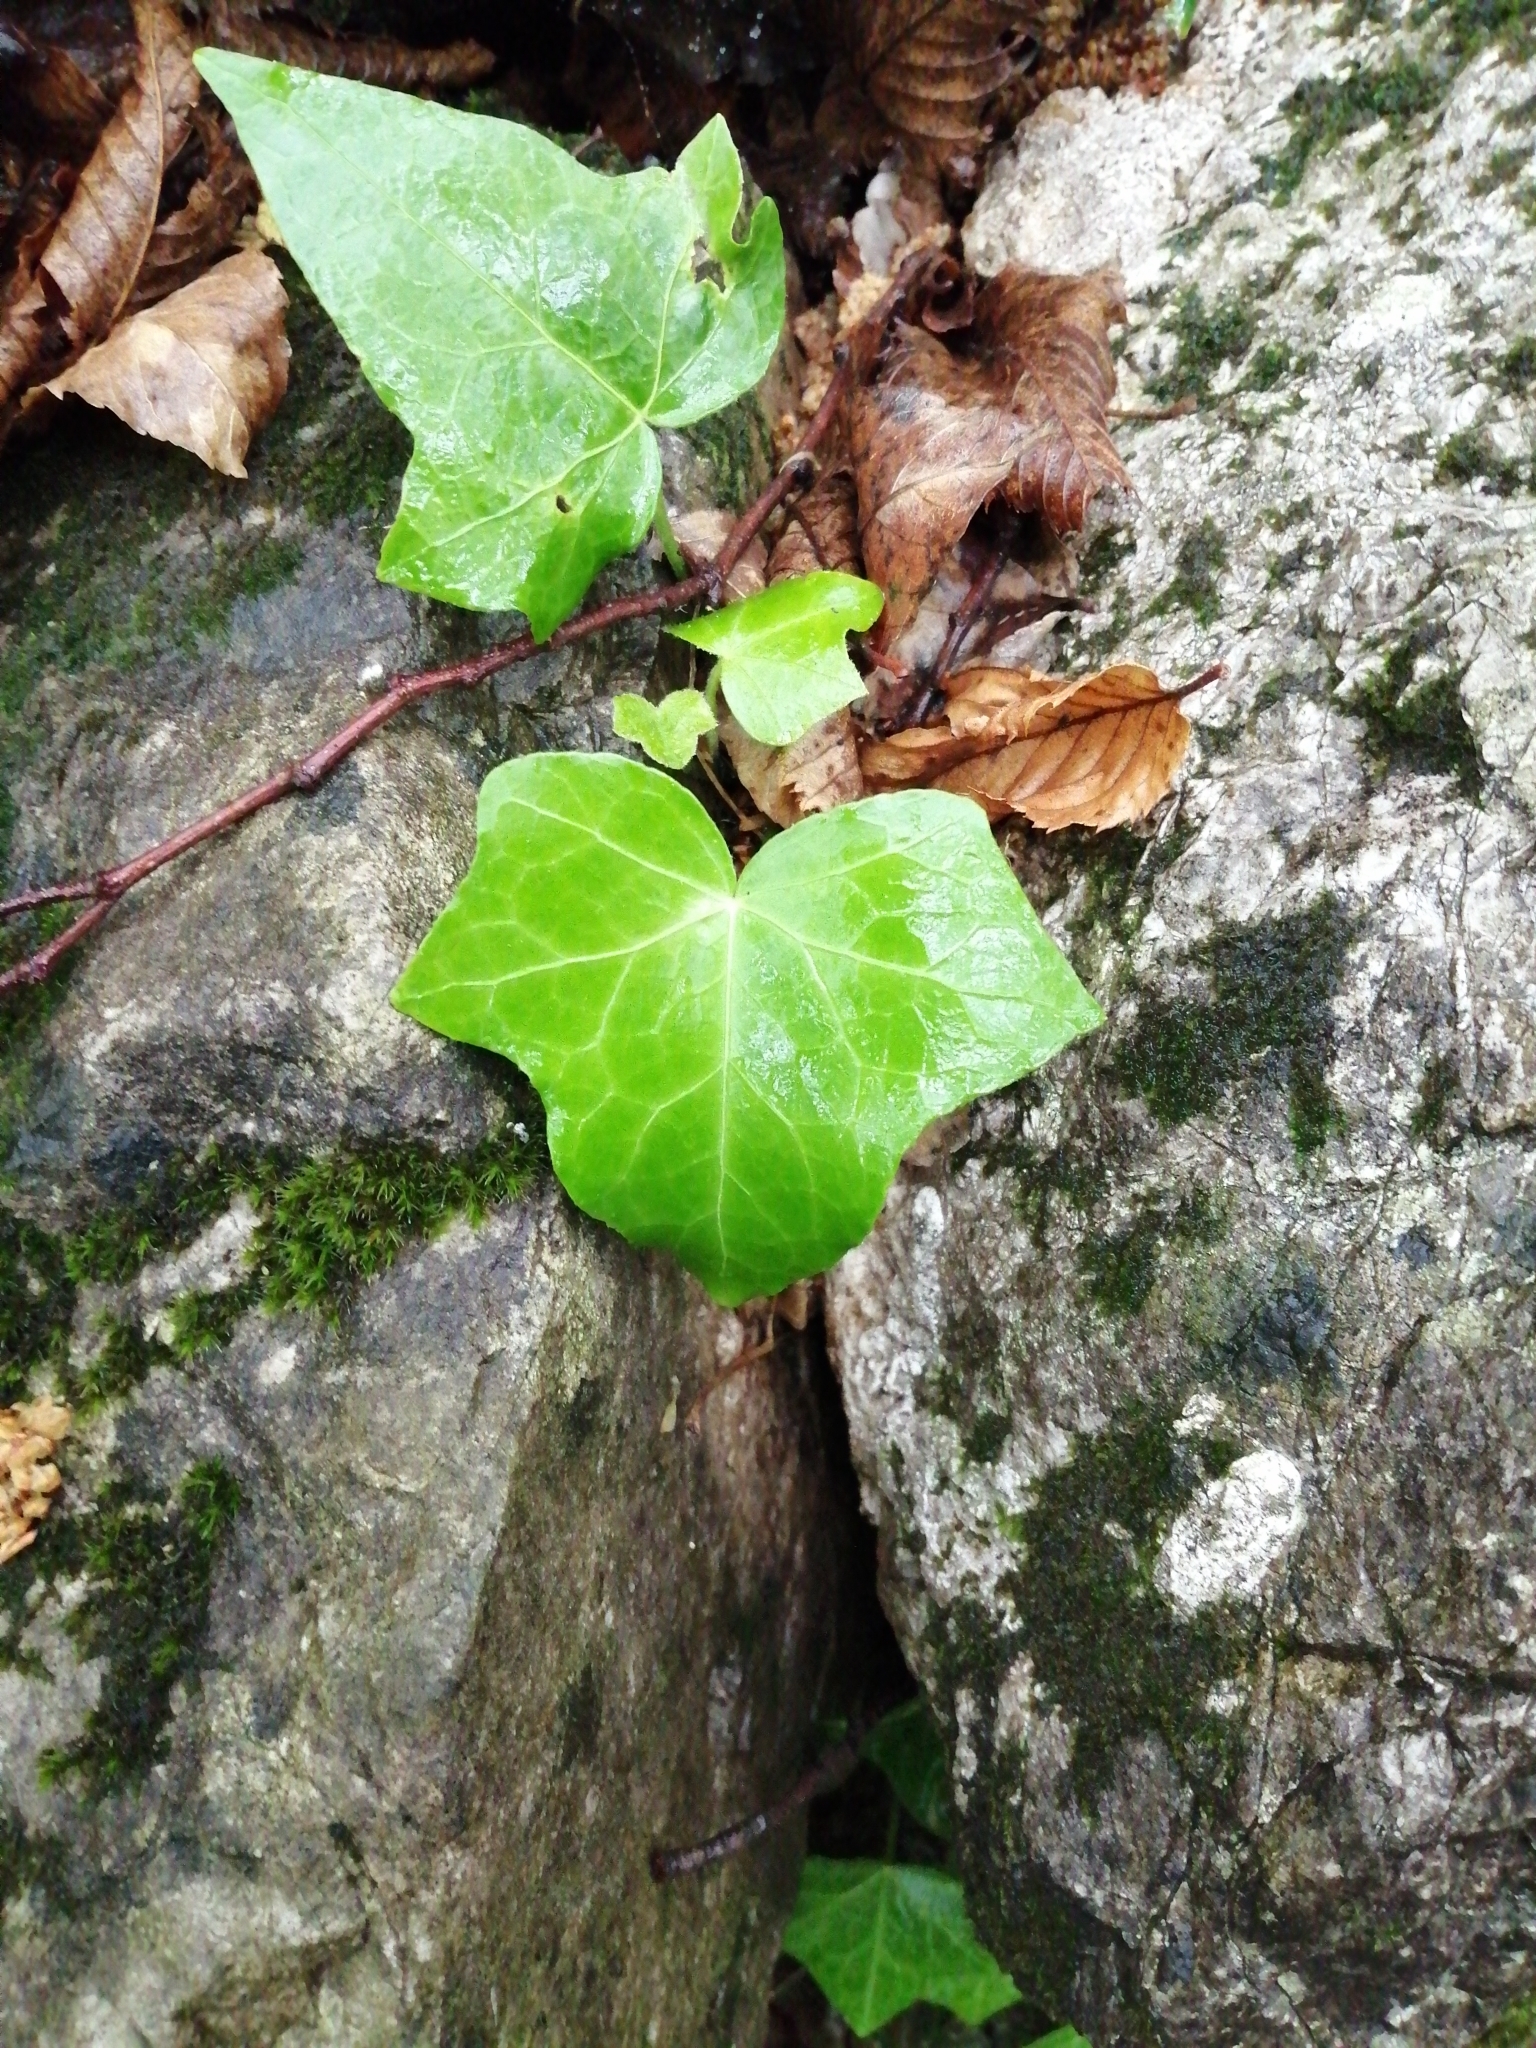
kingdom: Plantae
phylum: Tracheophyta
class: Magnoliopsida
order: Apiales
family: Araliaceae
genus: Hedera
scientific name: Hedera helix
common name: Ivy
